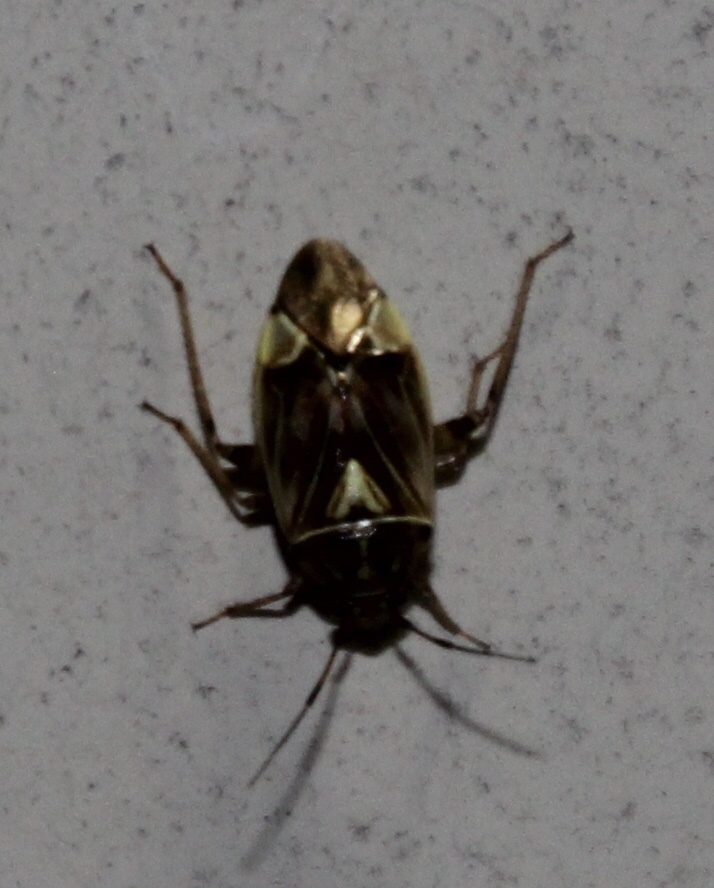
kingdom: Animalia
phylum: Arthropoda
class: Insecta
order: Hemiptera
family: Miridae
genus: Lygus
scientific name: Lygus lineolaris
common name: North american tarnished plant bug
